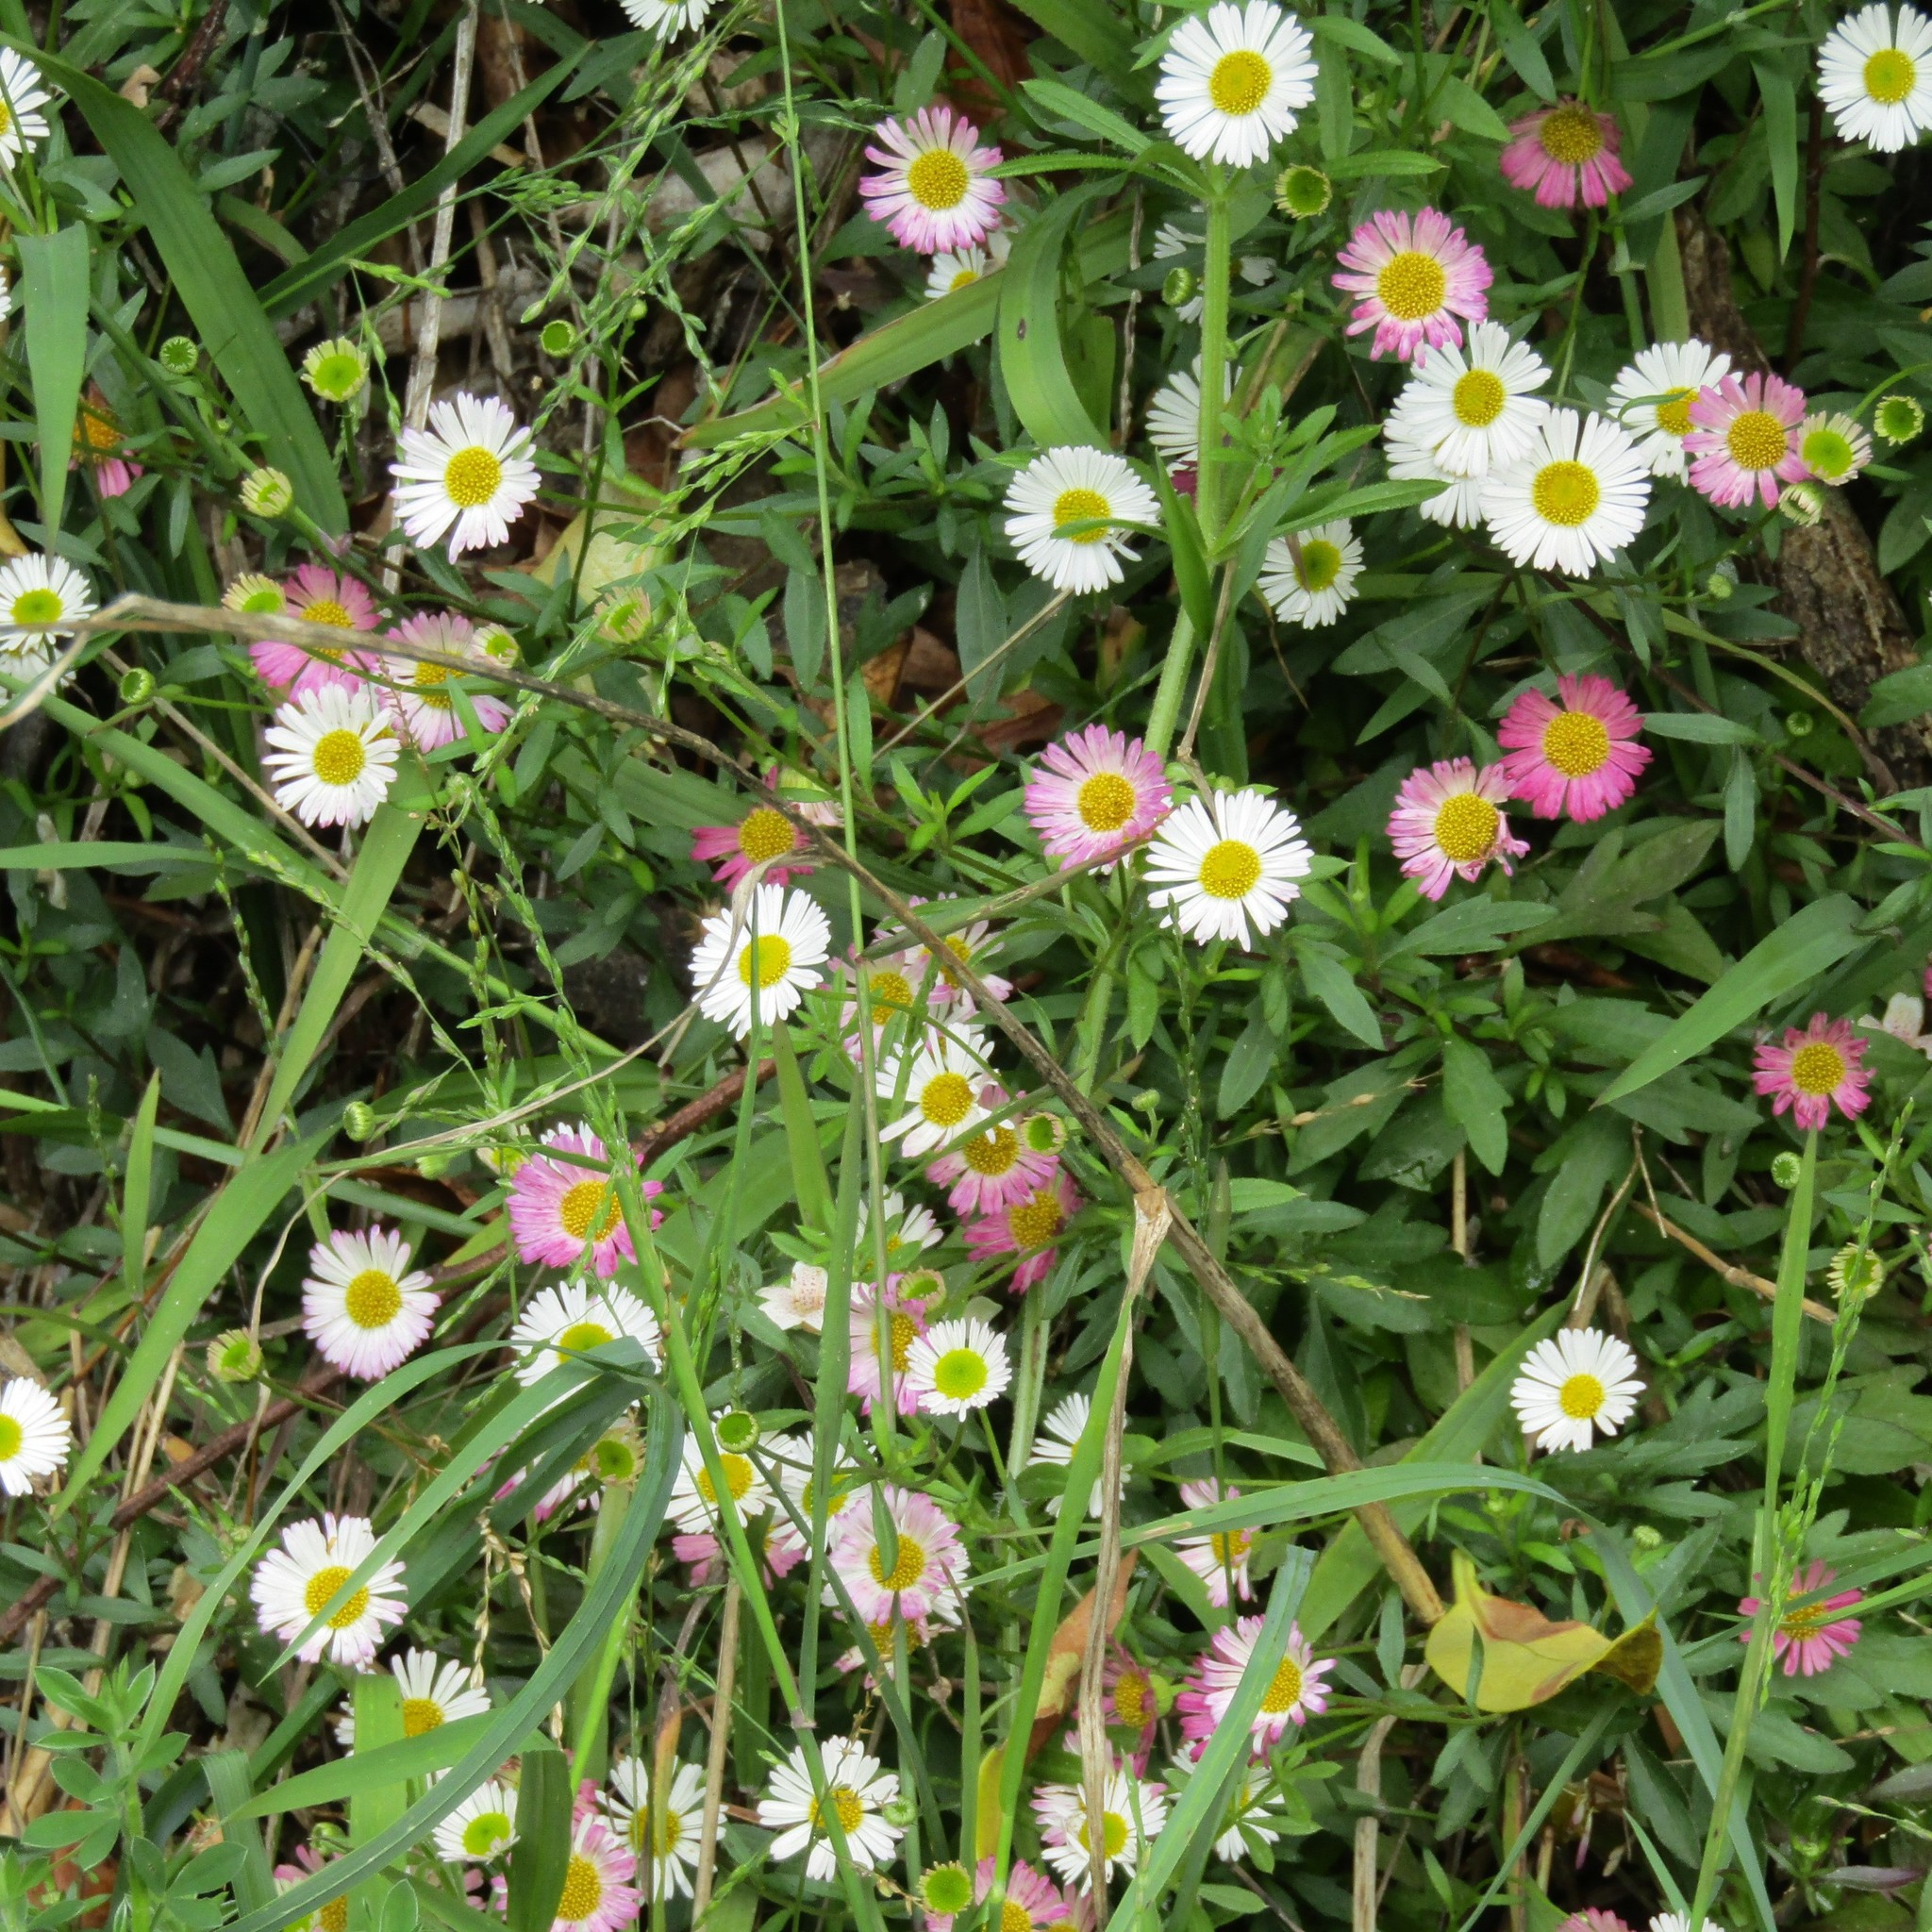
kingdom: Plantae
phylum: Tracheophyta
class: Magnoliopsida
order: Asterales
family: Asteraceae
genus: Erigeron
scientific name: Erigeron karvinskianus
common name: Mexican fleabane
